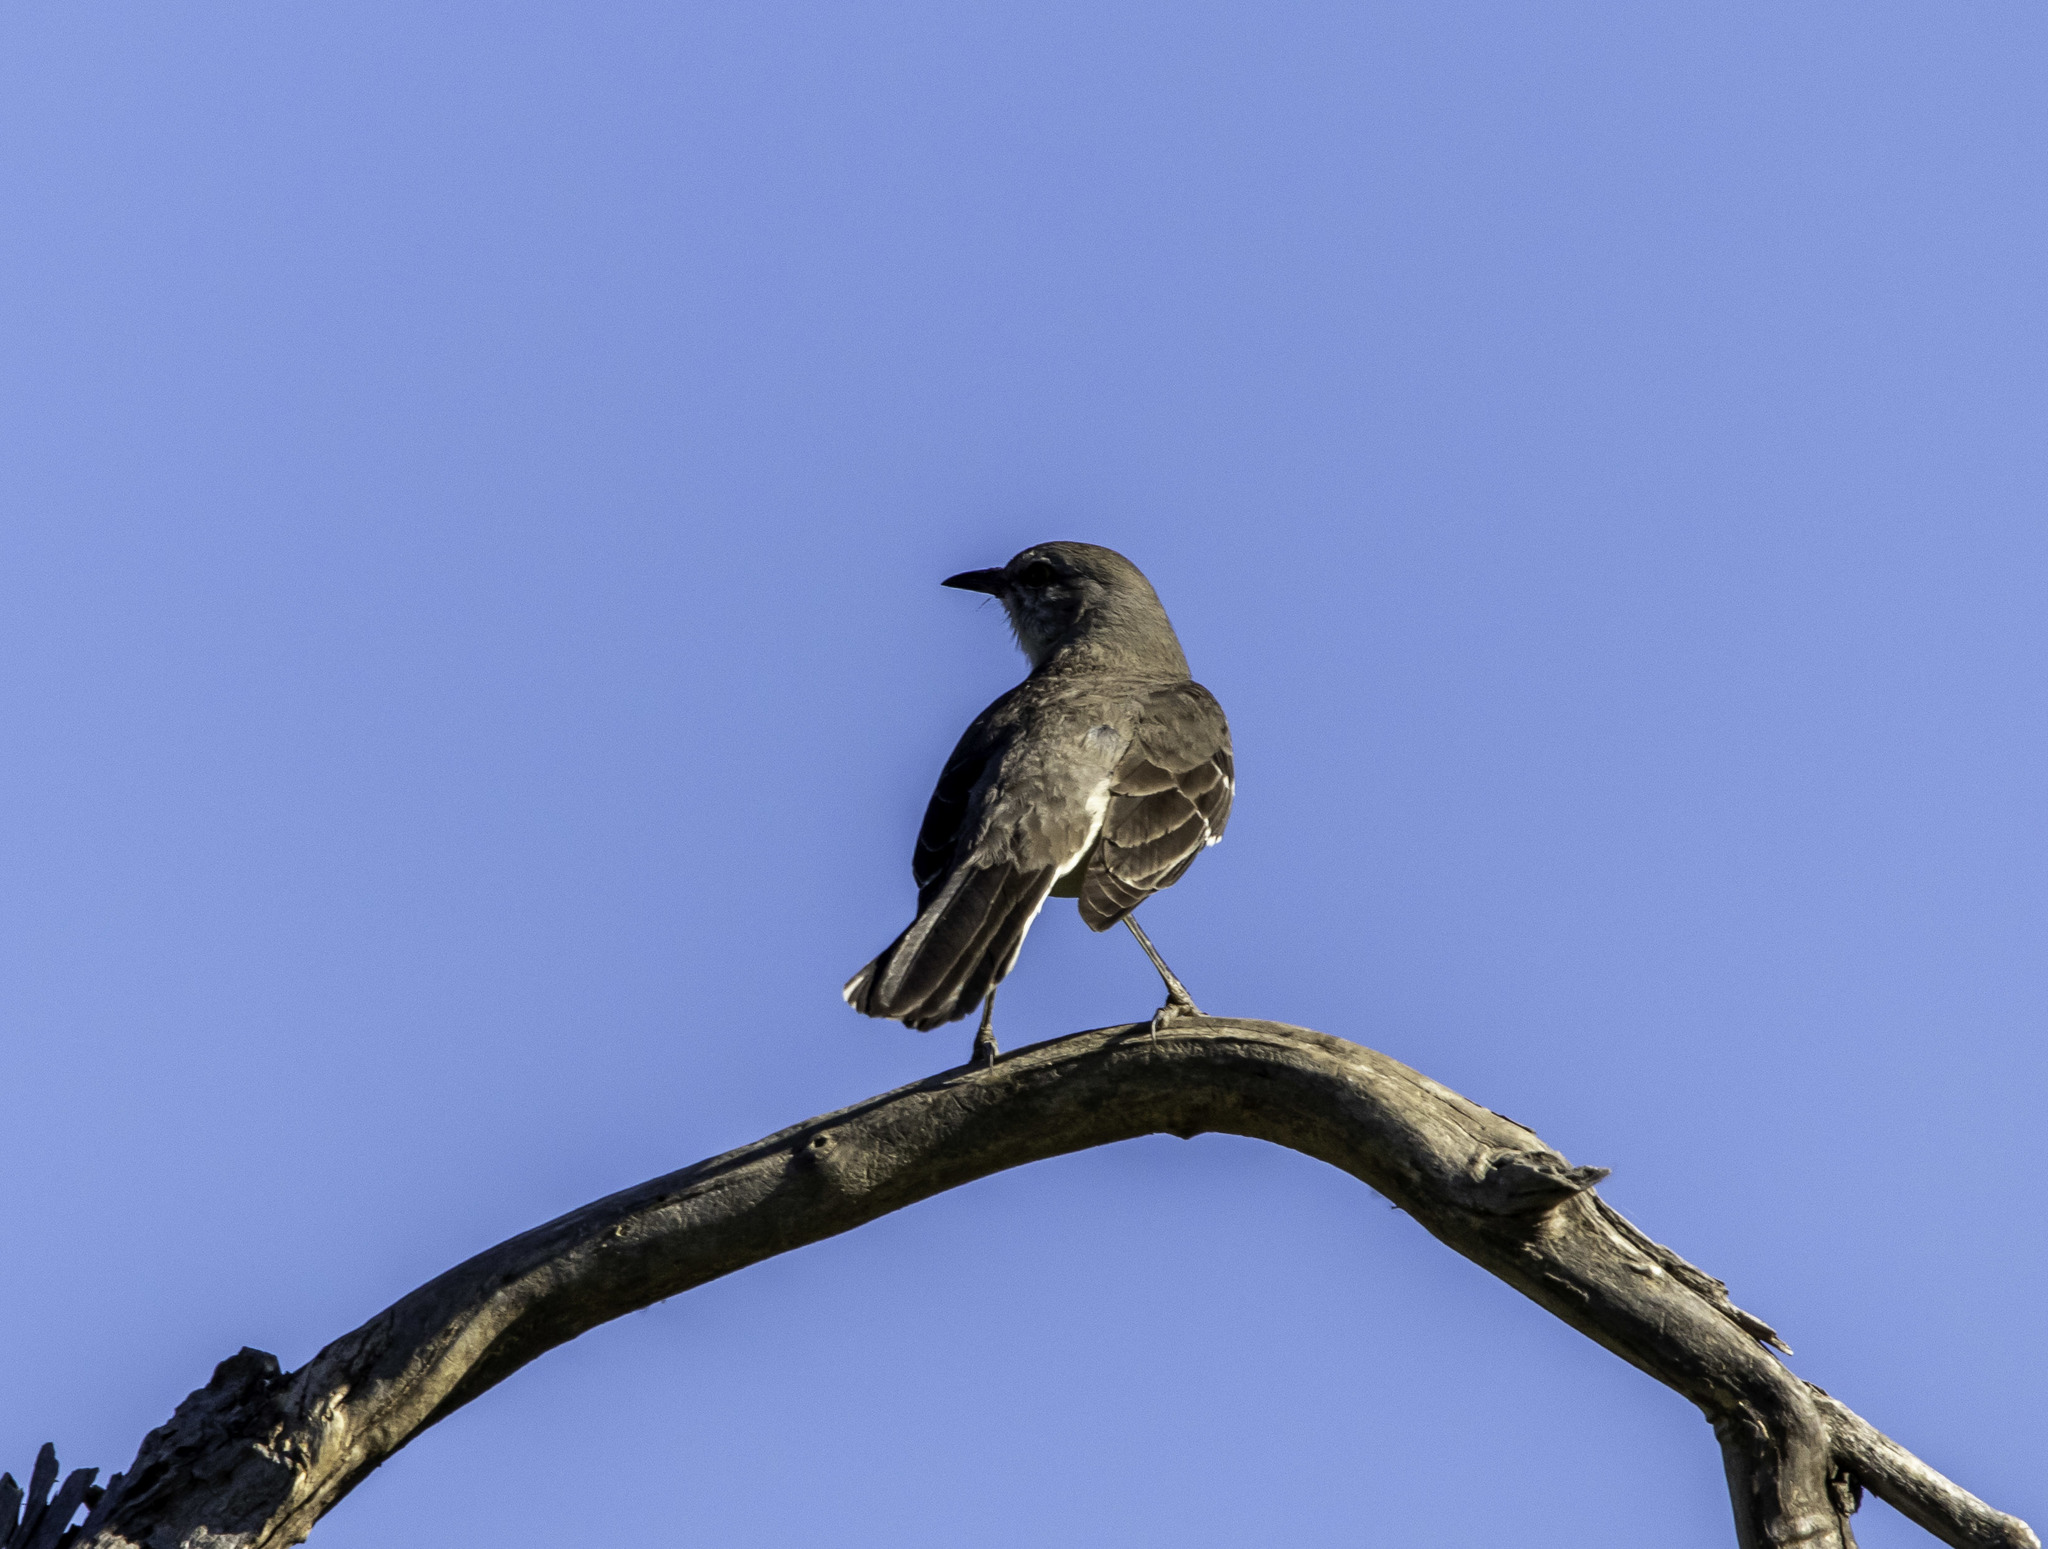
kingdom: Animalia
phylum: Chordata
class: Aves
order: Passeriformes
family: Mimidae
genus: Mimus
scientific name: Mimus polyglottos
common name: Northern mockingbird
